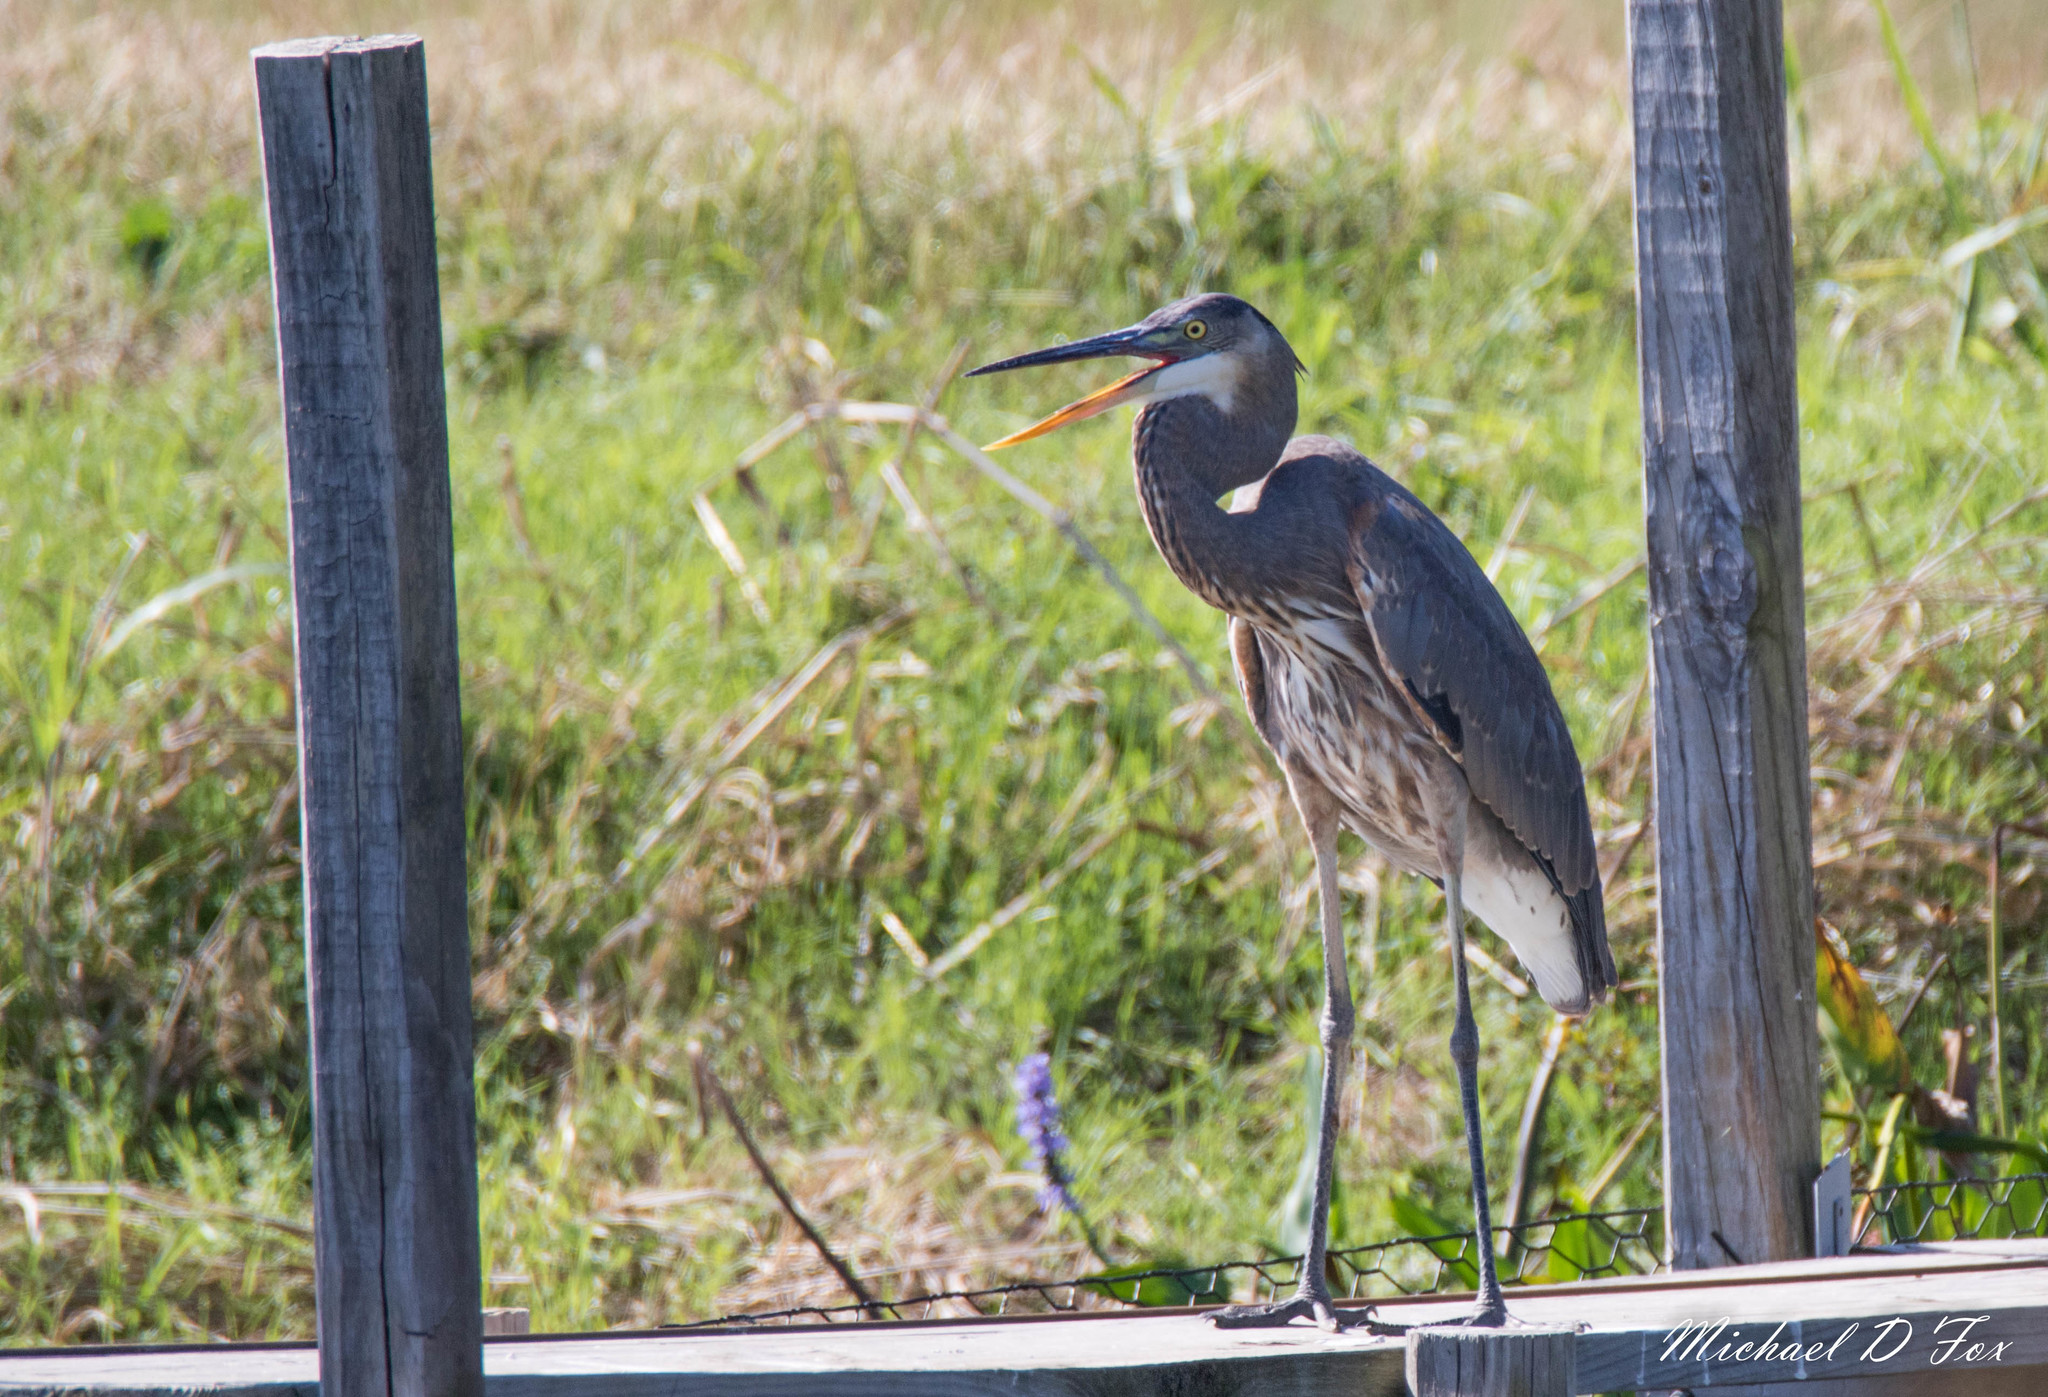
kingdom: Animalia
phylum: Chordata
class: Aves
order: Pelecaniformes
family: Ardeidae
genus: Ardea
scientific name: Ardea herodias
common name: Great blue heron
